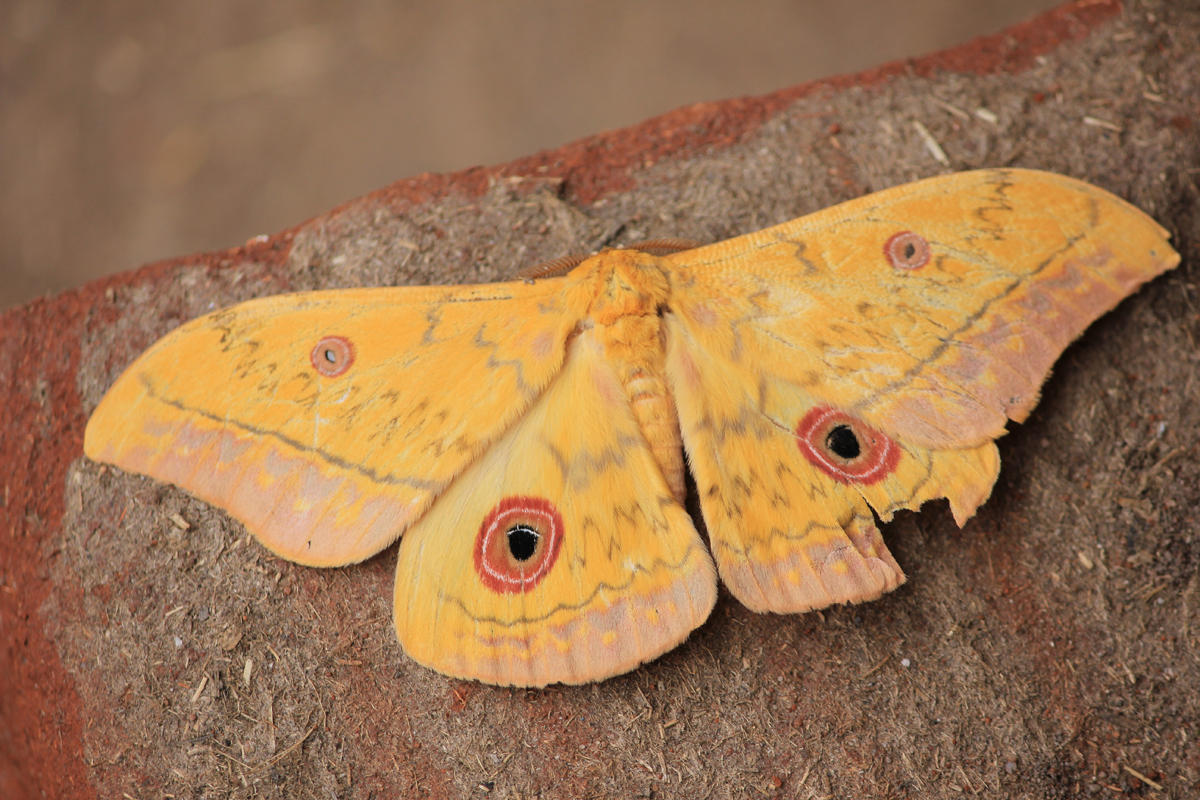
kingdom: Animalia
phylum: Arthropoda
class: Insecta
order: Lepidoptera
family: Saturniidae
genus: Aurivillius
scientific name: Aurivillius fusca
